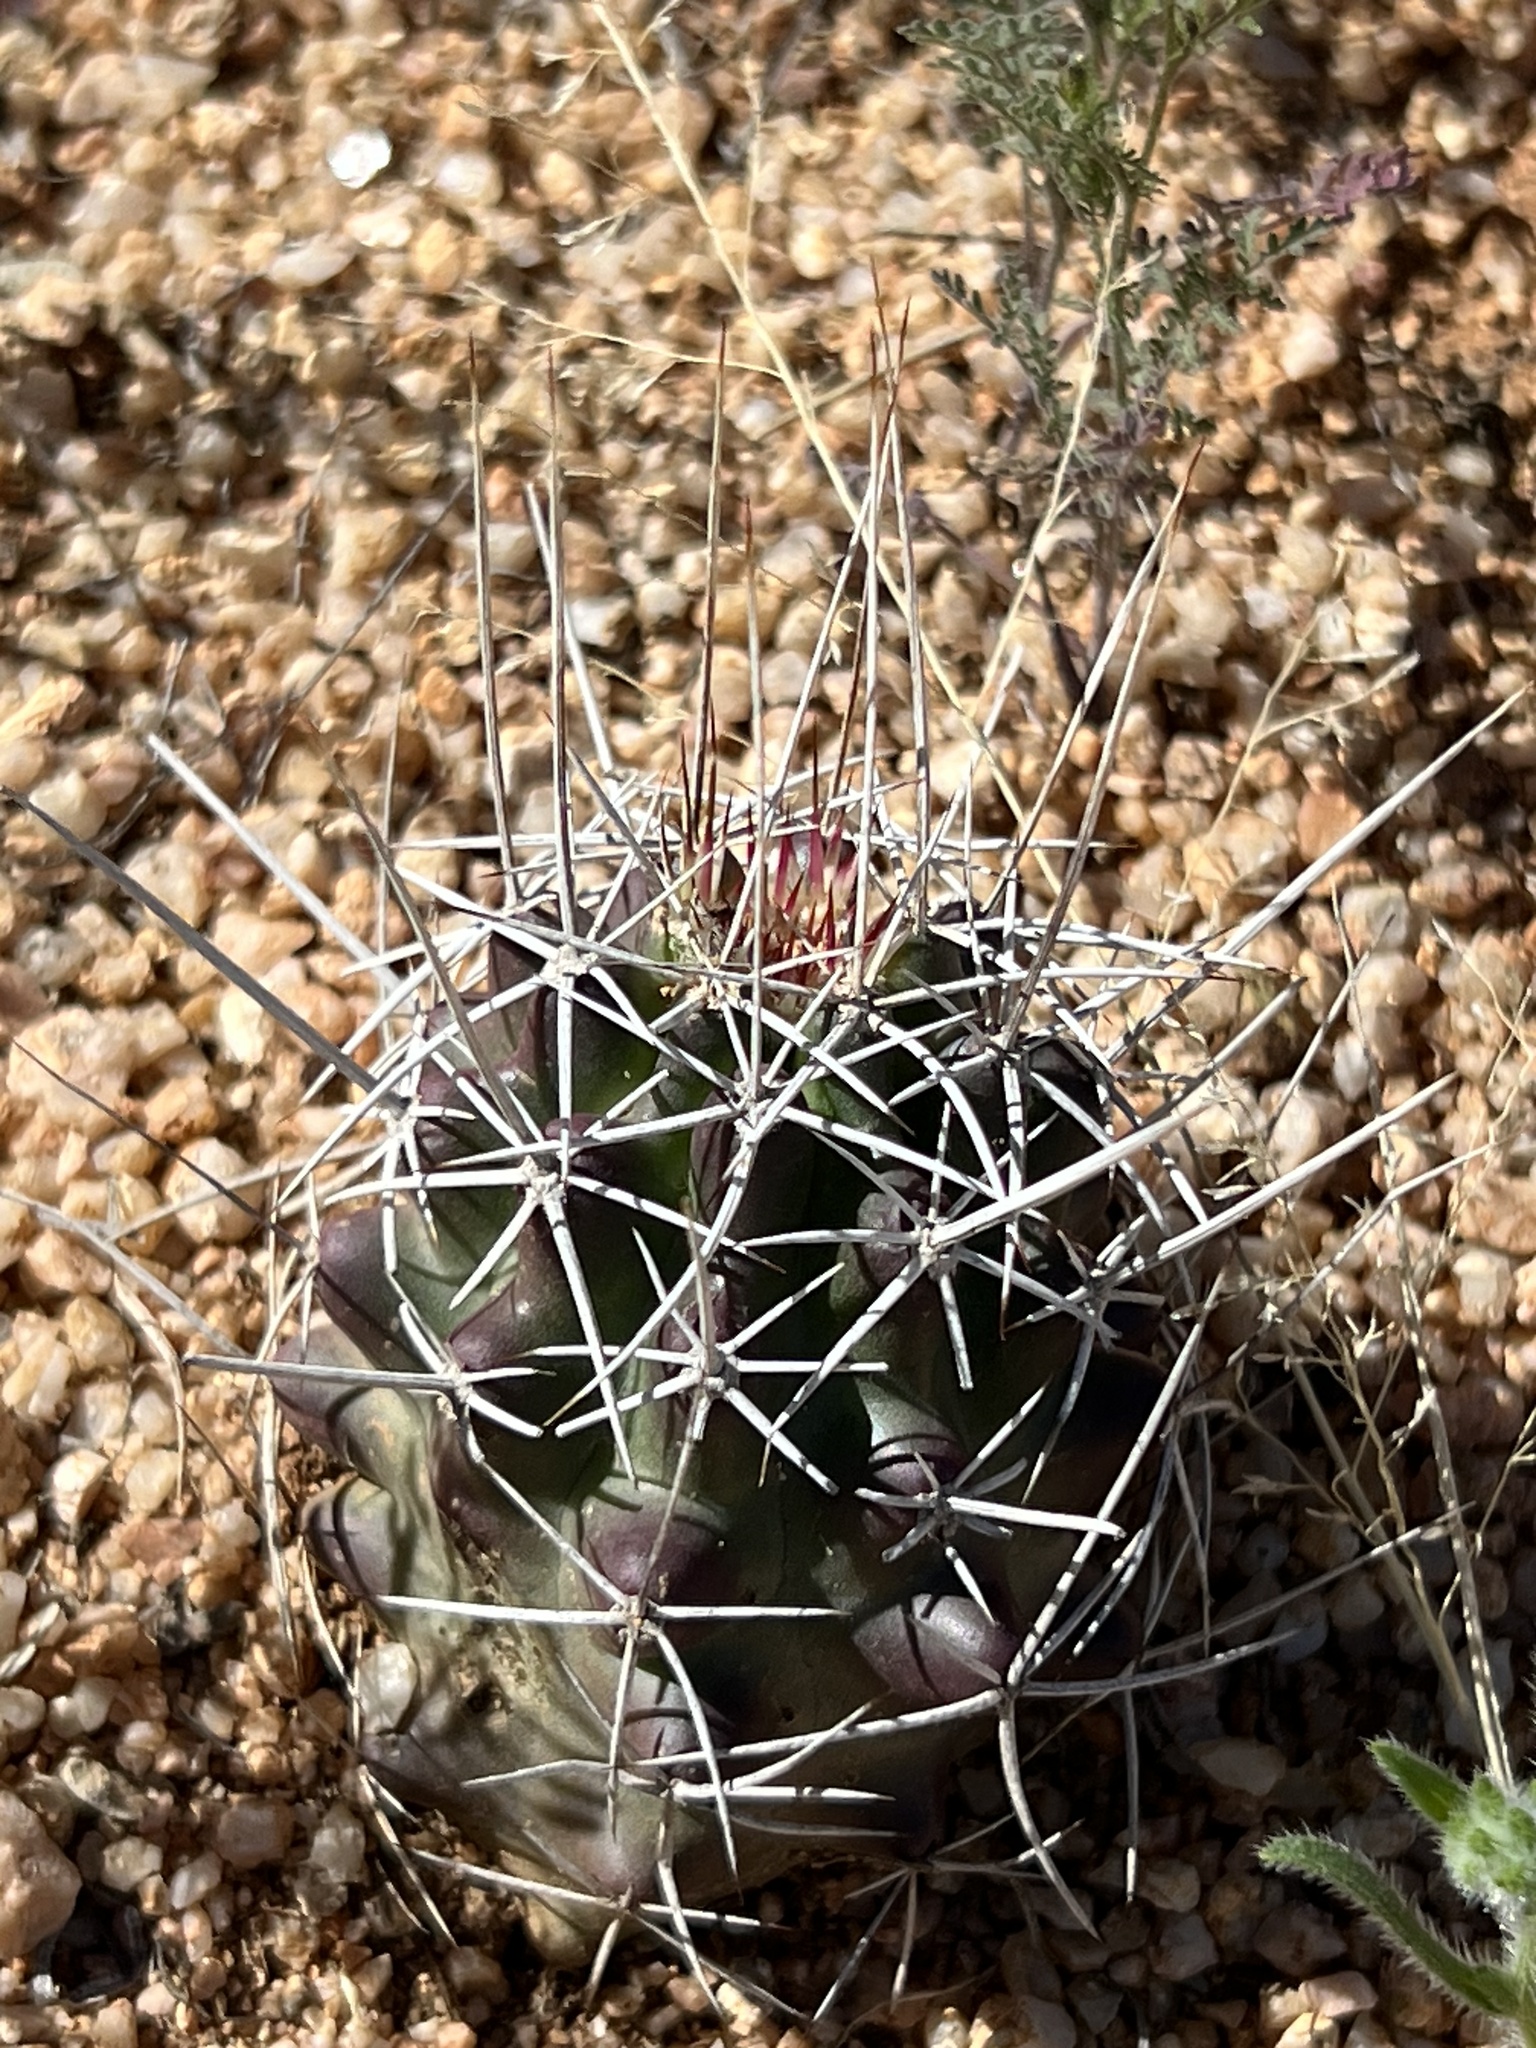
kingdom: Plantae
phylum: Tracheophyta
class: Magnoliopsida
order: Caryophyllales
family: Cactaceae
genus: Echinocereus
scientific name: Echinocereus fendleri
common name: Fendler's hedgehog cactus
